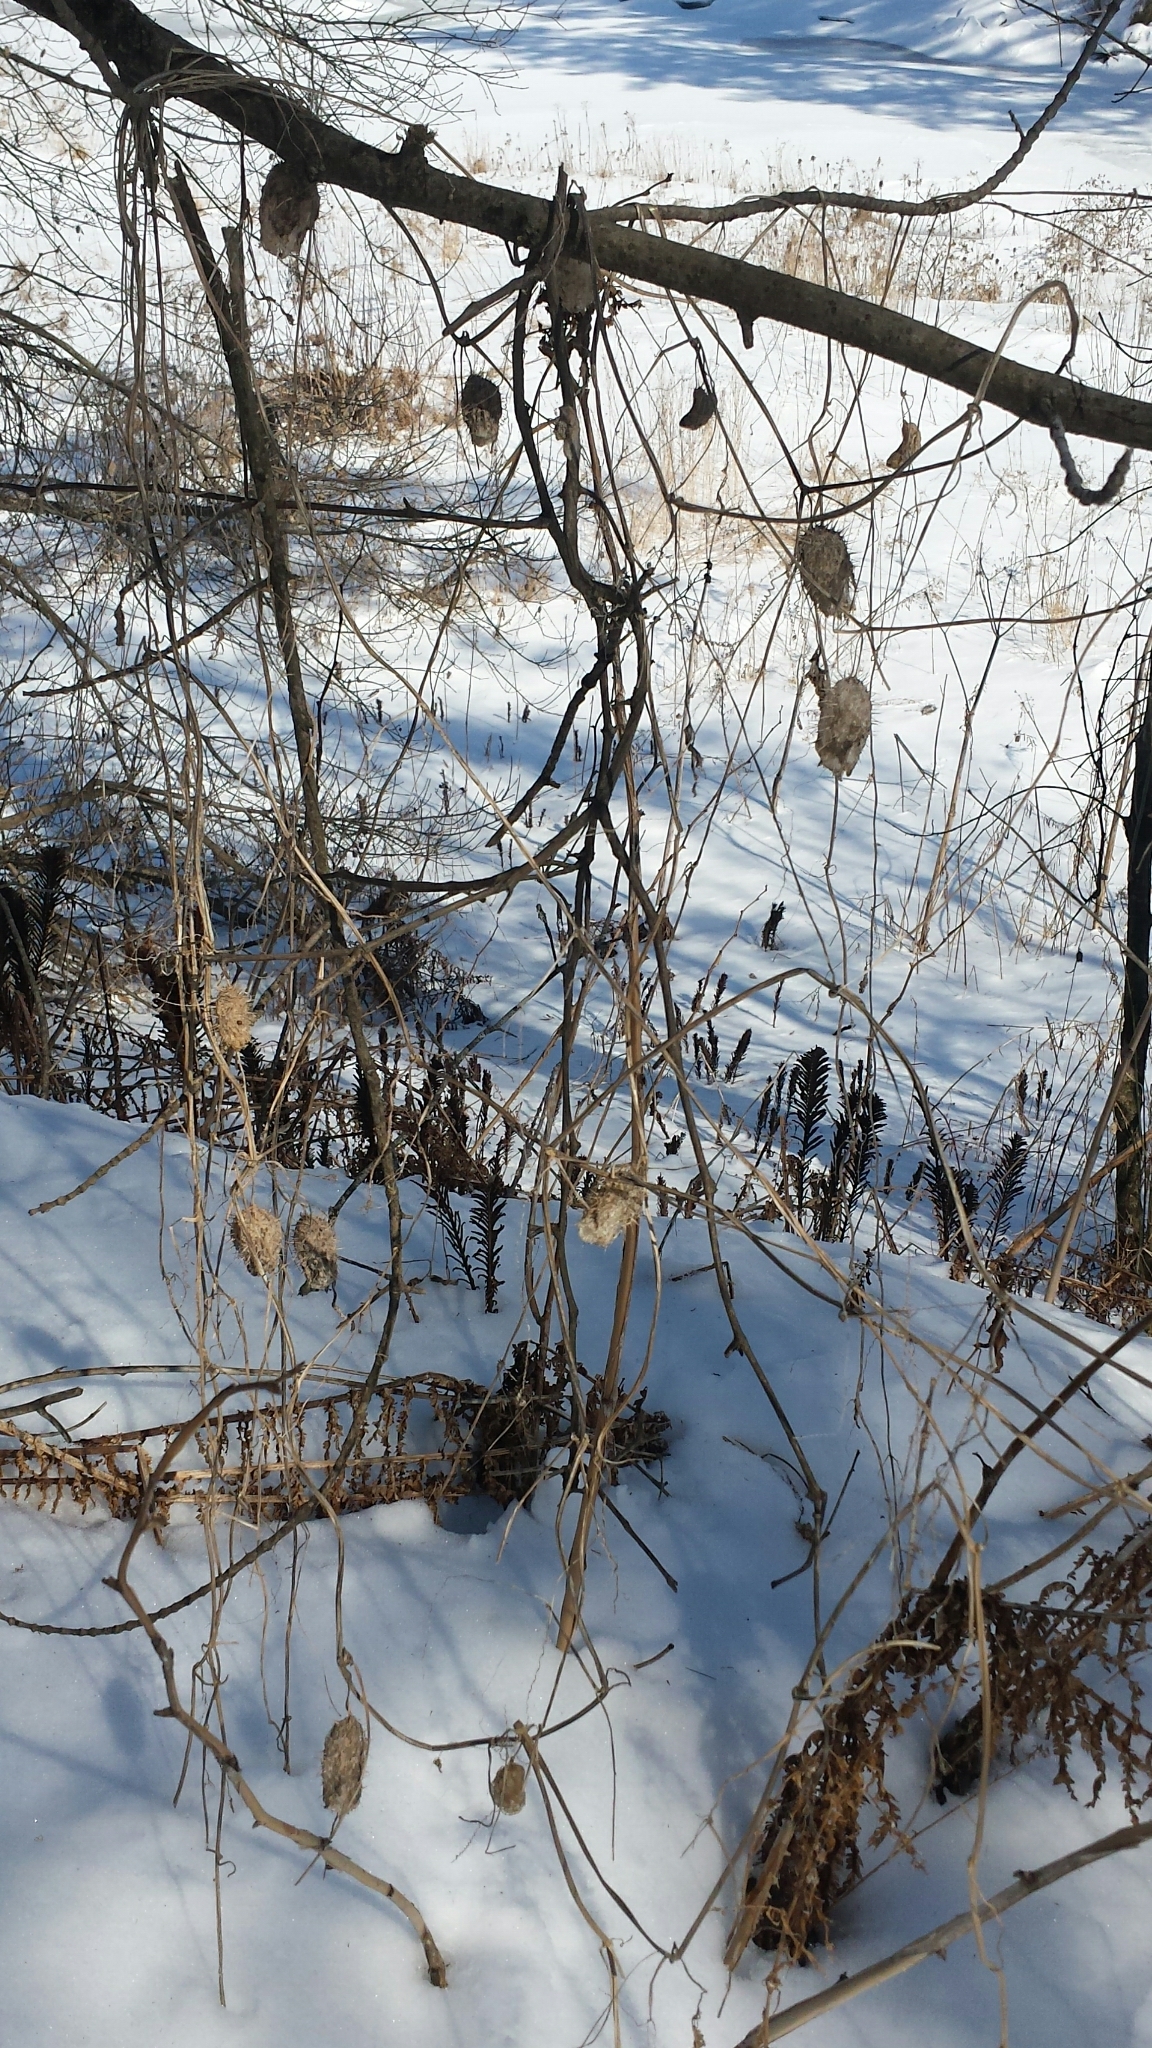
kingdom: Plantae
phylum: Tracheophyta
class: Magnoliopsida
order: Cucurbitales
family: Cucurbitaceae
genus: Echinocystis
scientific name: Echinocystis lobata
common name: Wild cucumber
